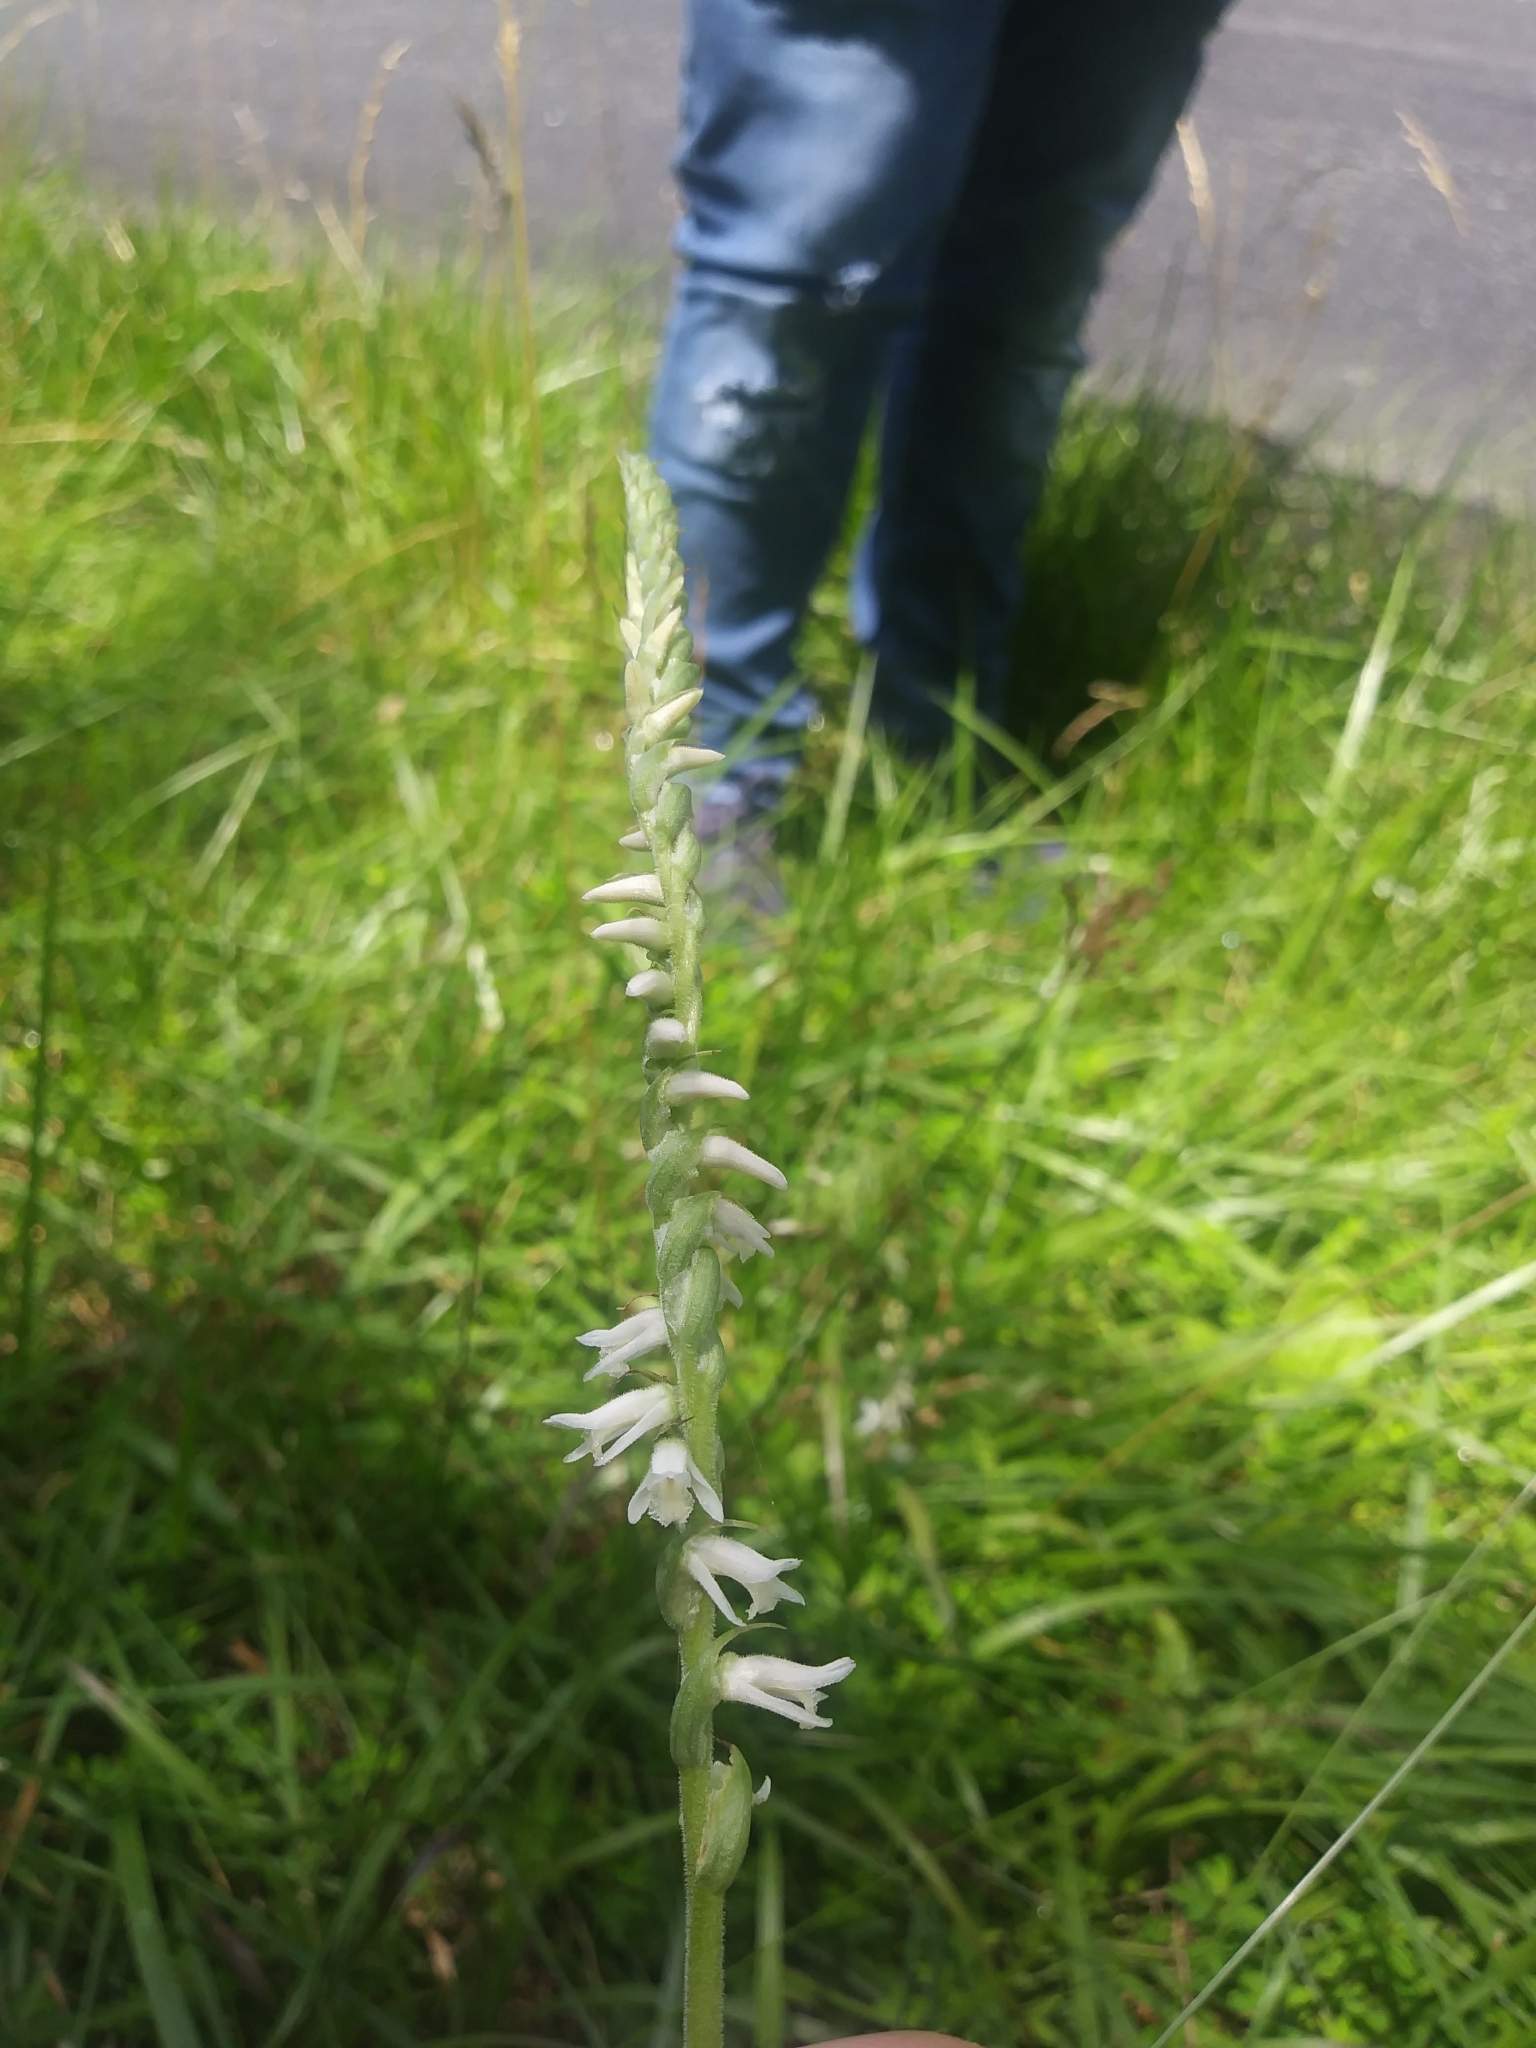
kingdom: Plantae
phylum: Tracheophyta
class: Liliopsida
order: Asparagales
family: Orchidaceae
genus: Spiranthes
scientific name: Spiranthes vernalis
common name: Spring ladies'-tresses
